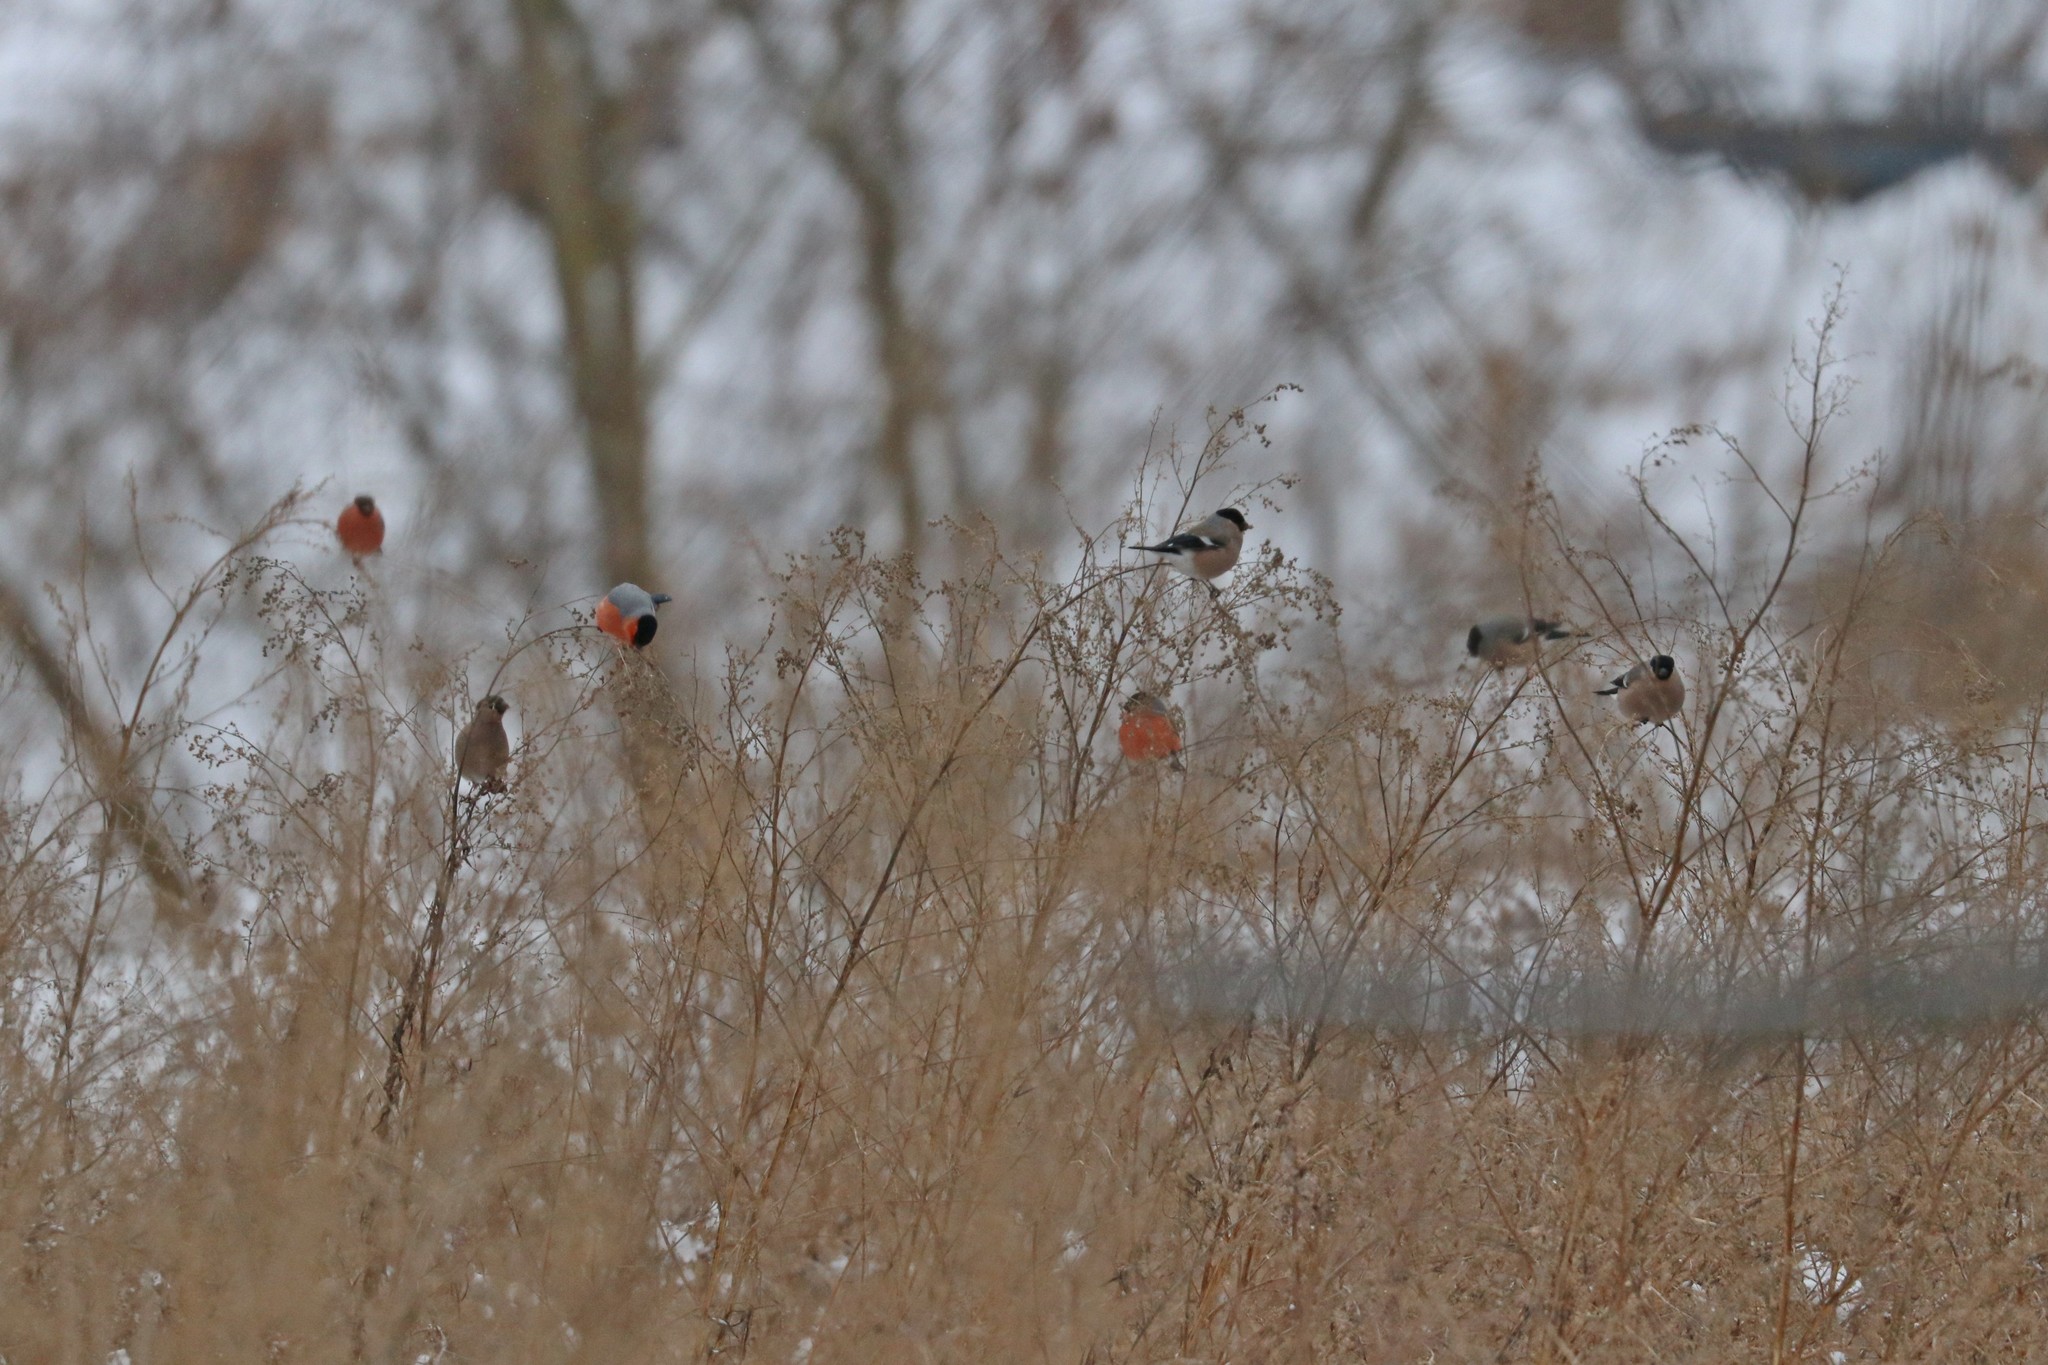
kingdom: Animalia
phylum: Chordata
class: Aves
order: Passeriformes
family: Fringillidae
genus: Pyrrhula
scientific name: Pyrrhula pyrrhula
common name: Eurasian bullfinch
